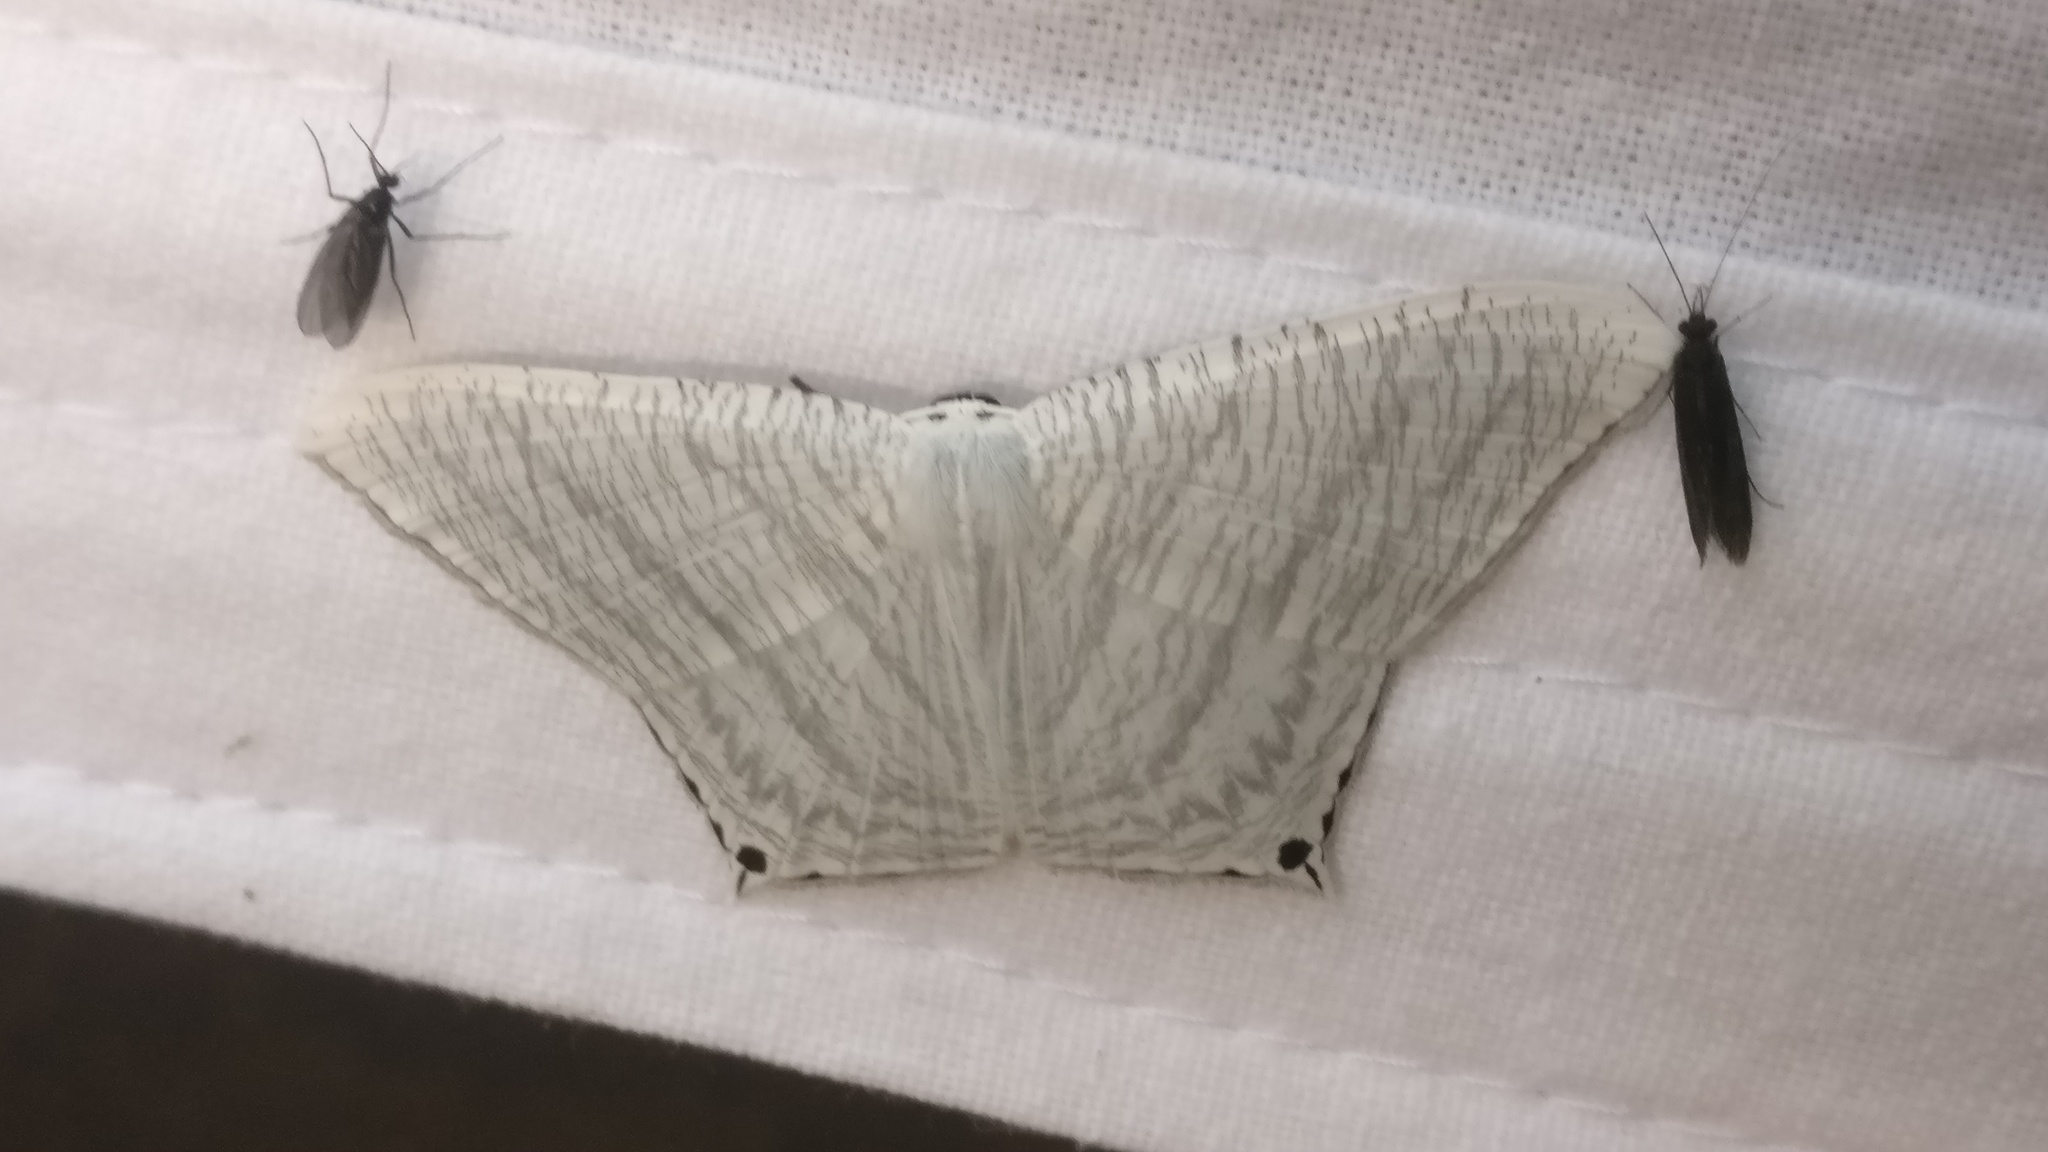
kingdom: Animalia
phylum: Arthropoda
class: Insecta
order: Lepidoptera
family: Uraniidae
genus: Micronia
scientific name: Micronia aculeata
